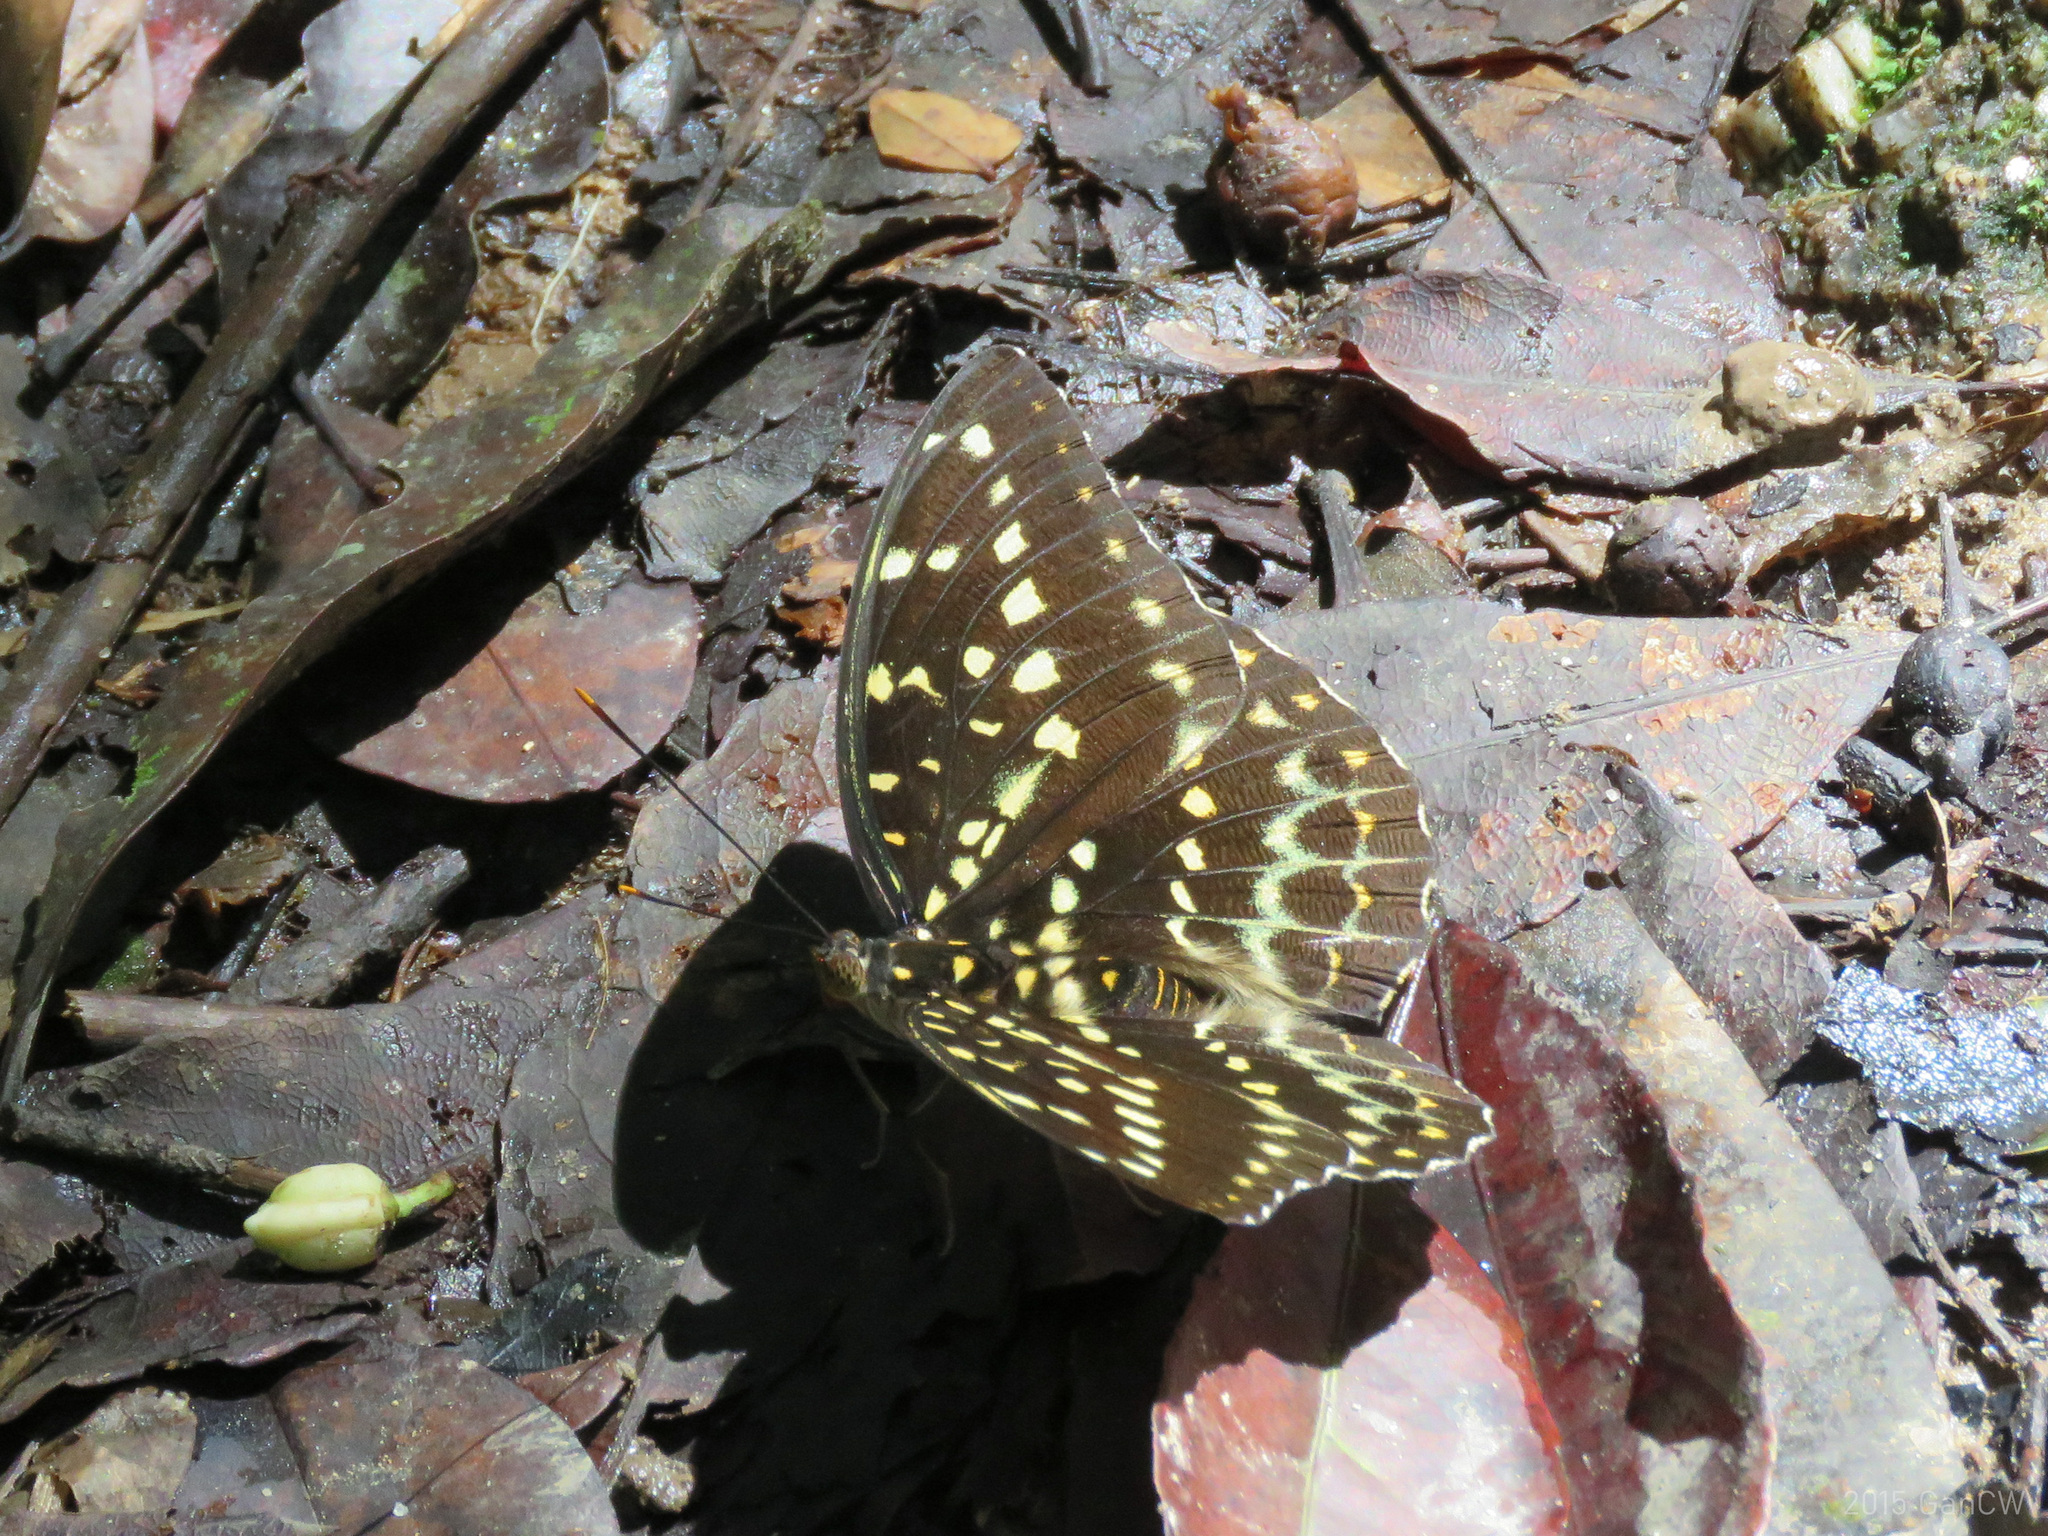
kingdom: Animalia
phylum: Arthropoda
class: Insecta
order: Lepidoptera
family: Nymphalidae
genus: Lexias
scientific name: Lexias pardalis
